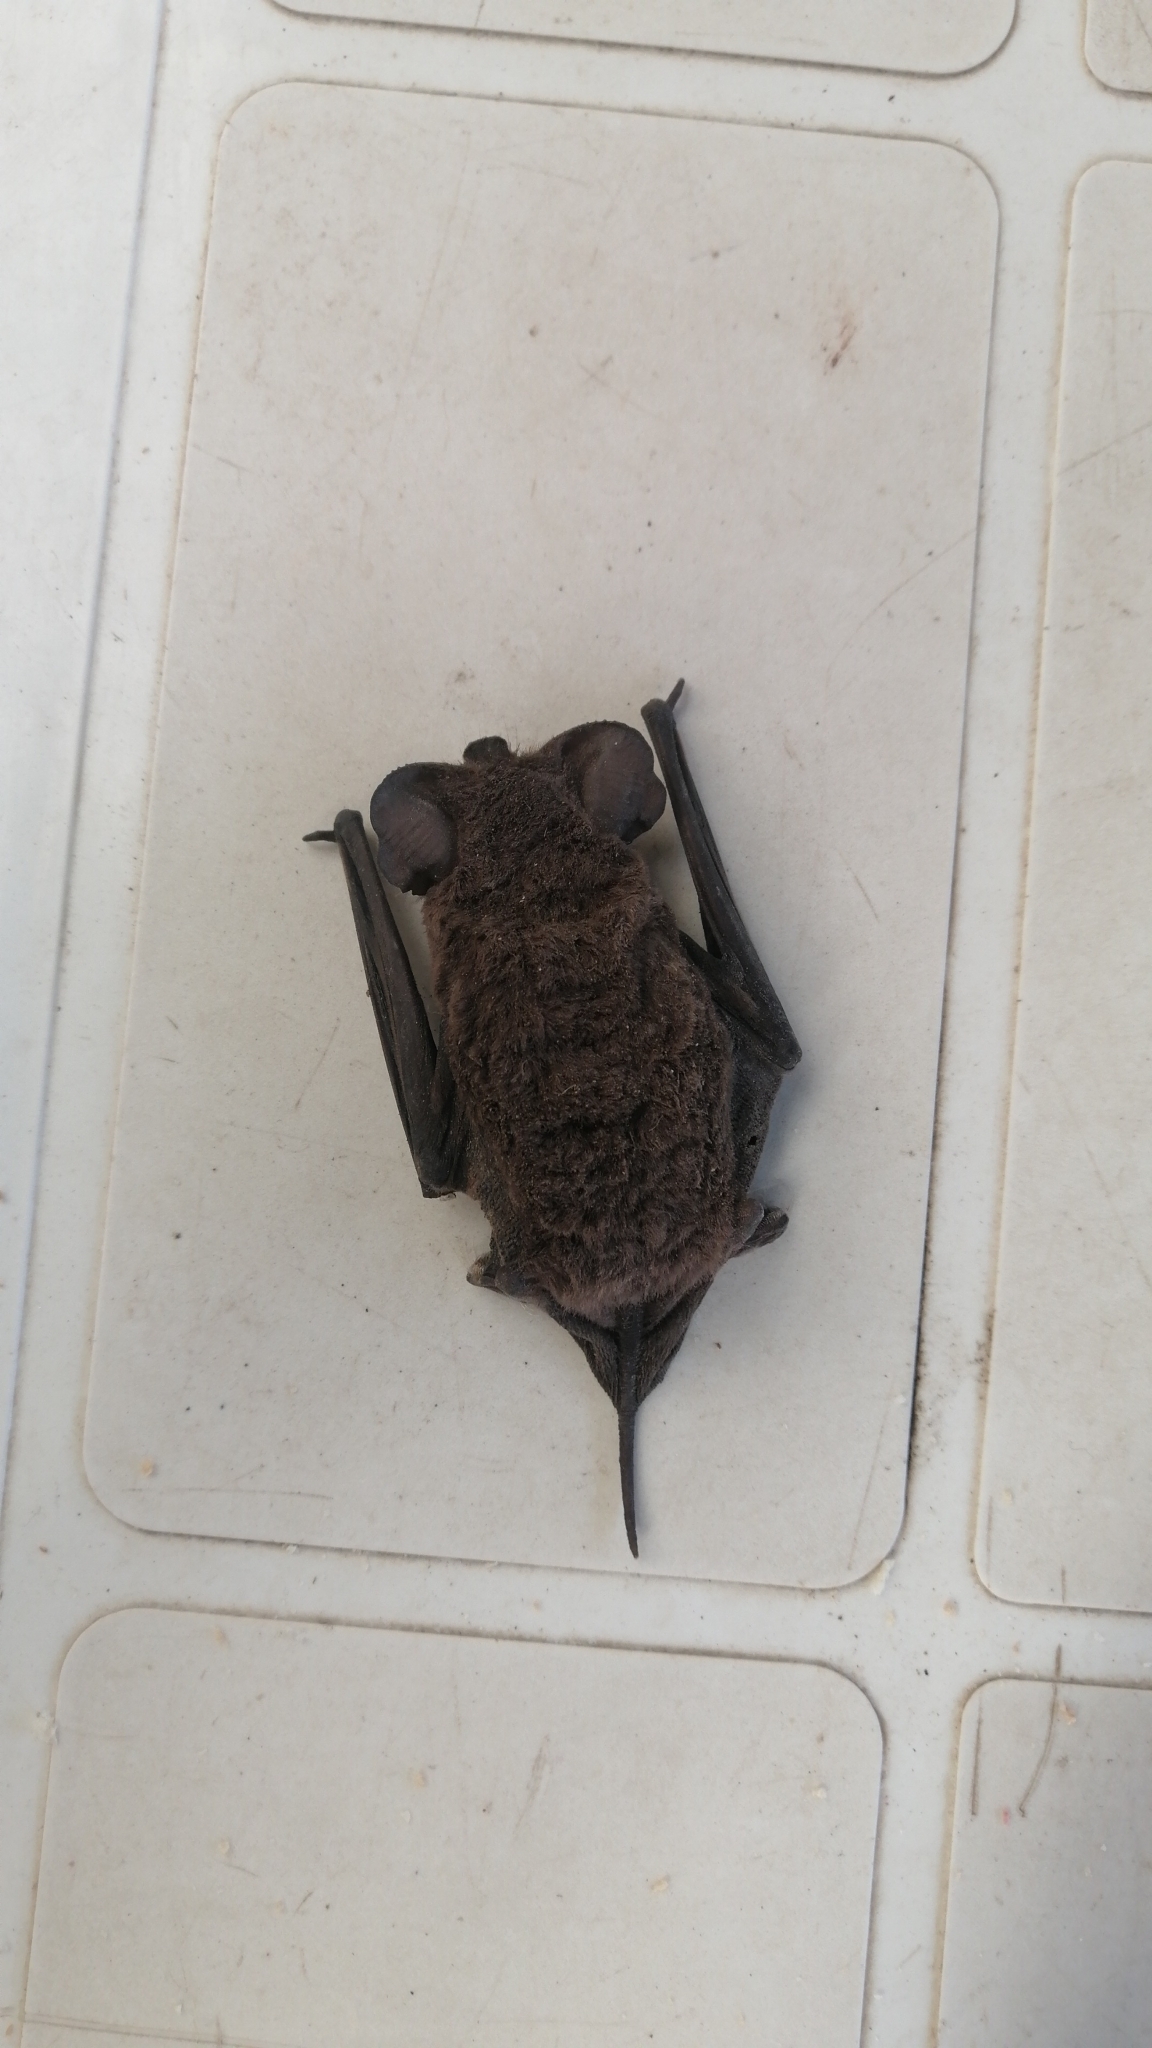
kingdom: Animalia
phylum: Chordata
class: Mammalia
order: Chiroptera
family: Molossidae
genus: Tadarida
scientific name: Tadarida brasiliensis
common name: Mexican free-tailed bat
